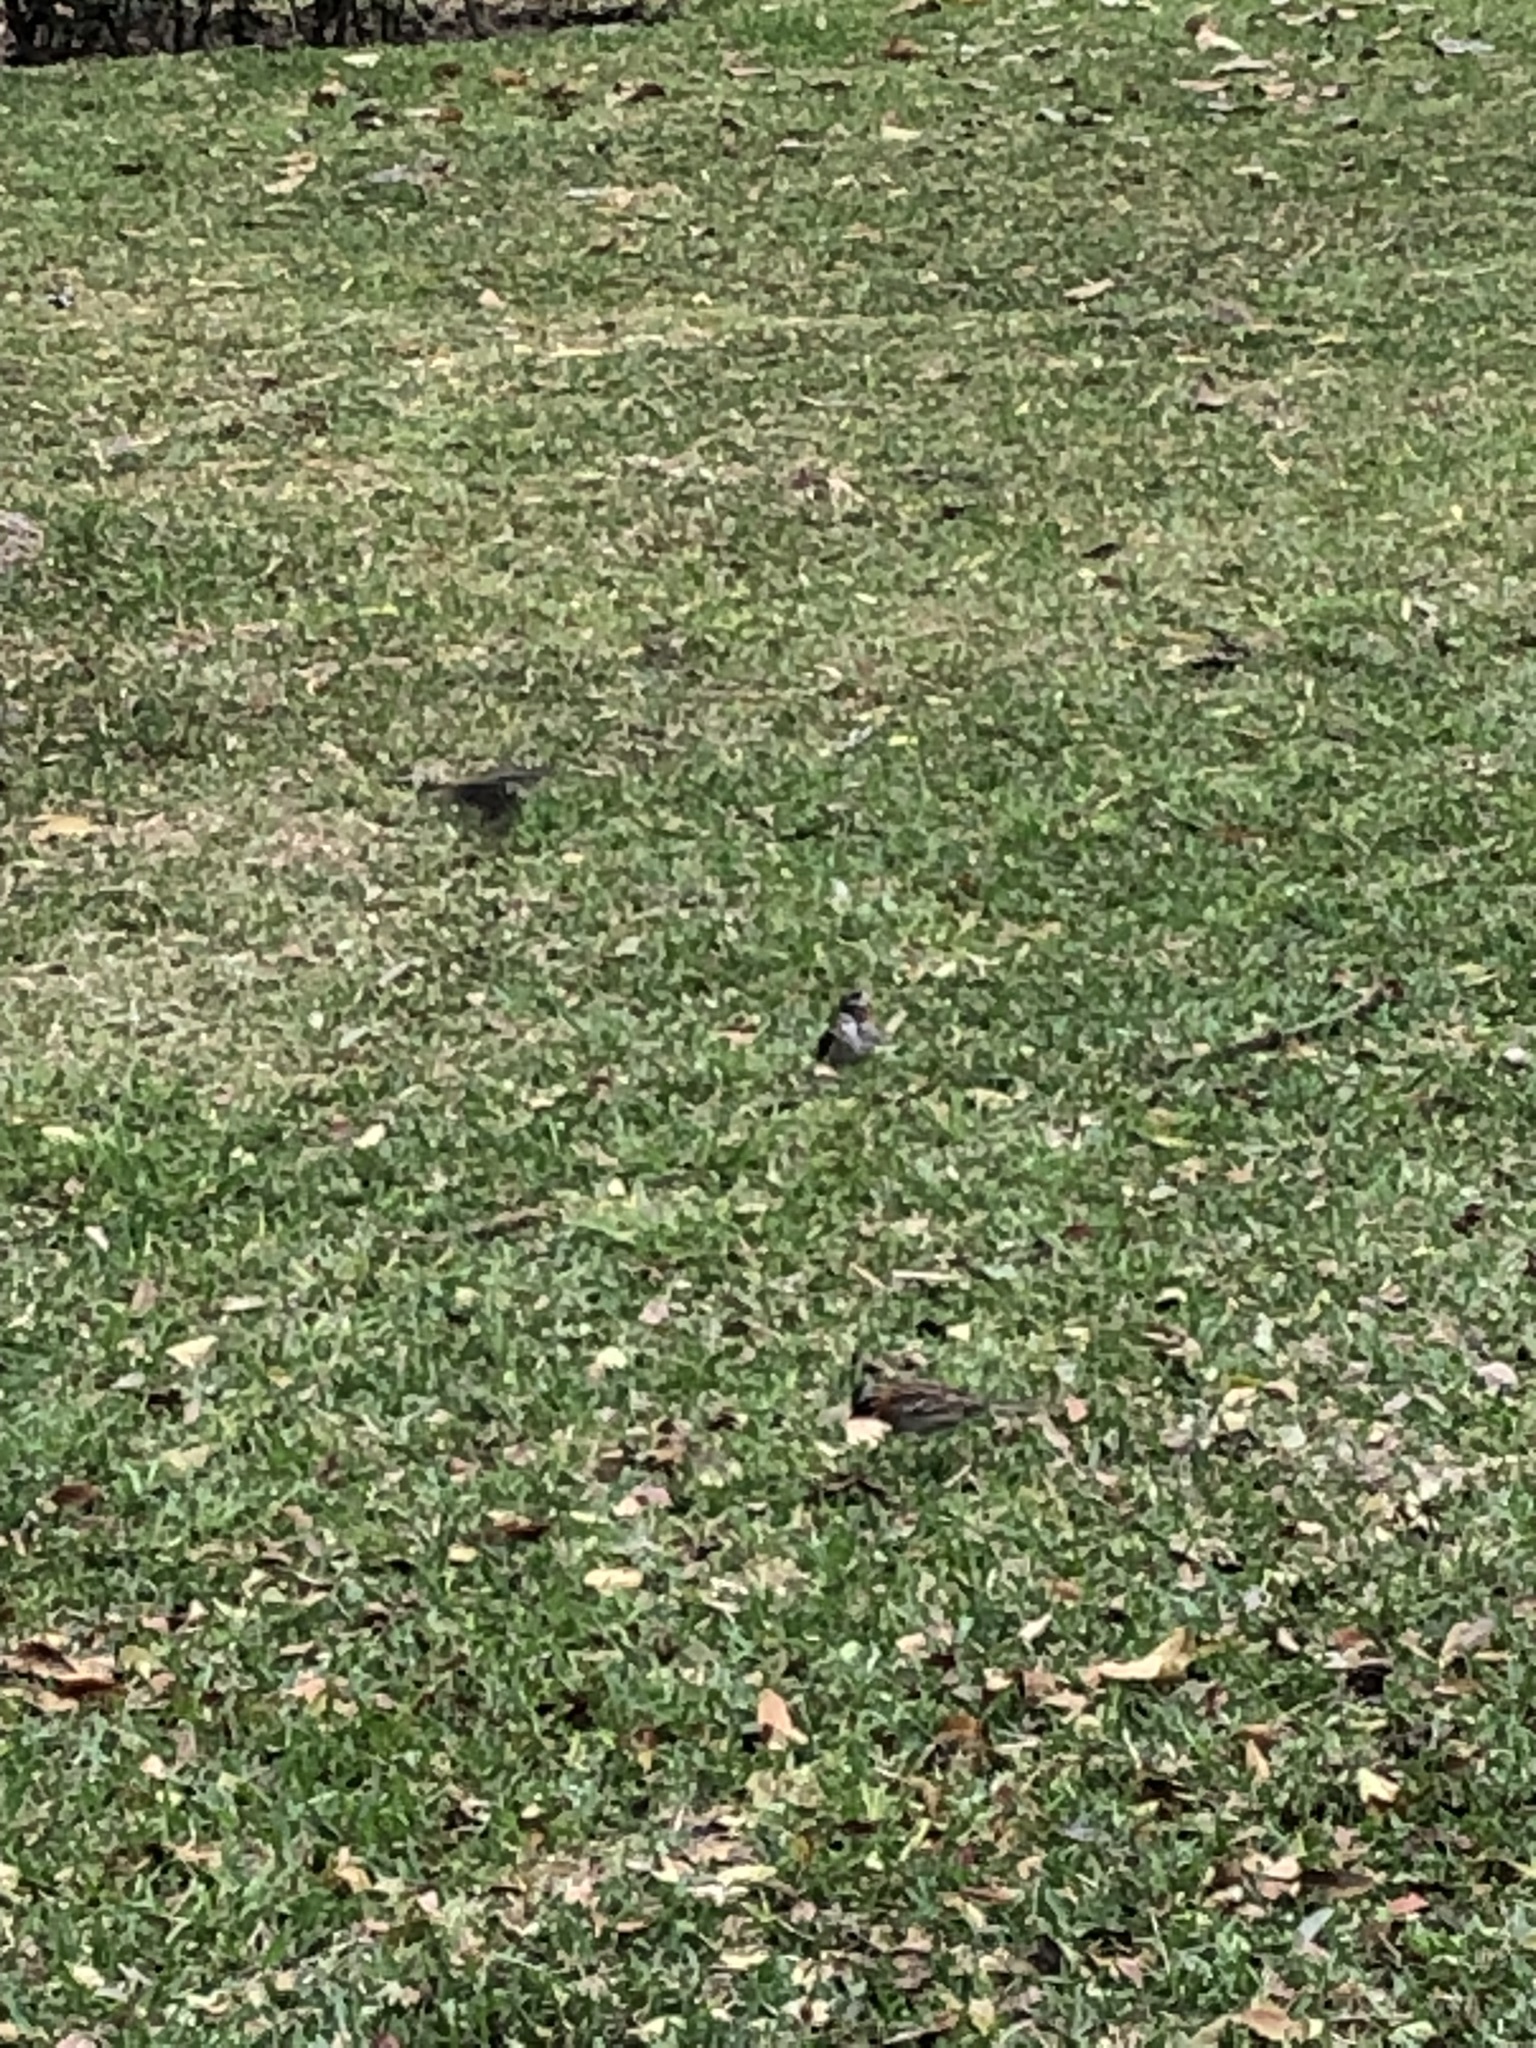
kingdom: Animalia
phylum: Chordata
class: Aves
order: Passeriformes
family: Passerellidae
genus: Zonotrichia
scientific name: Zonotrichia capensis
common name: Rufous-collared sparrow
